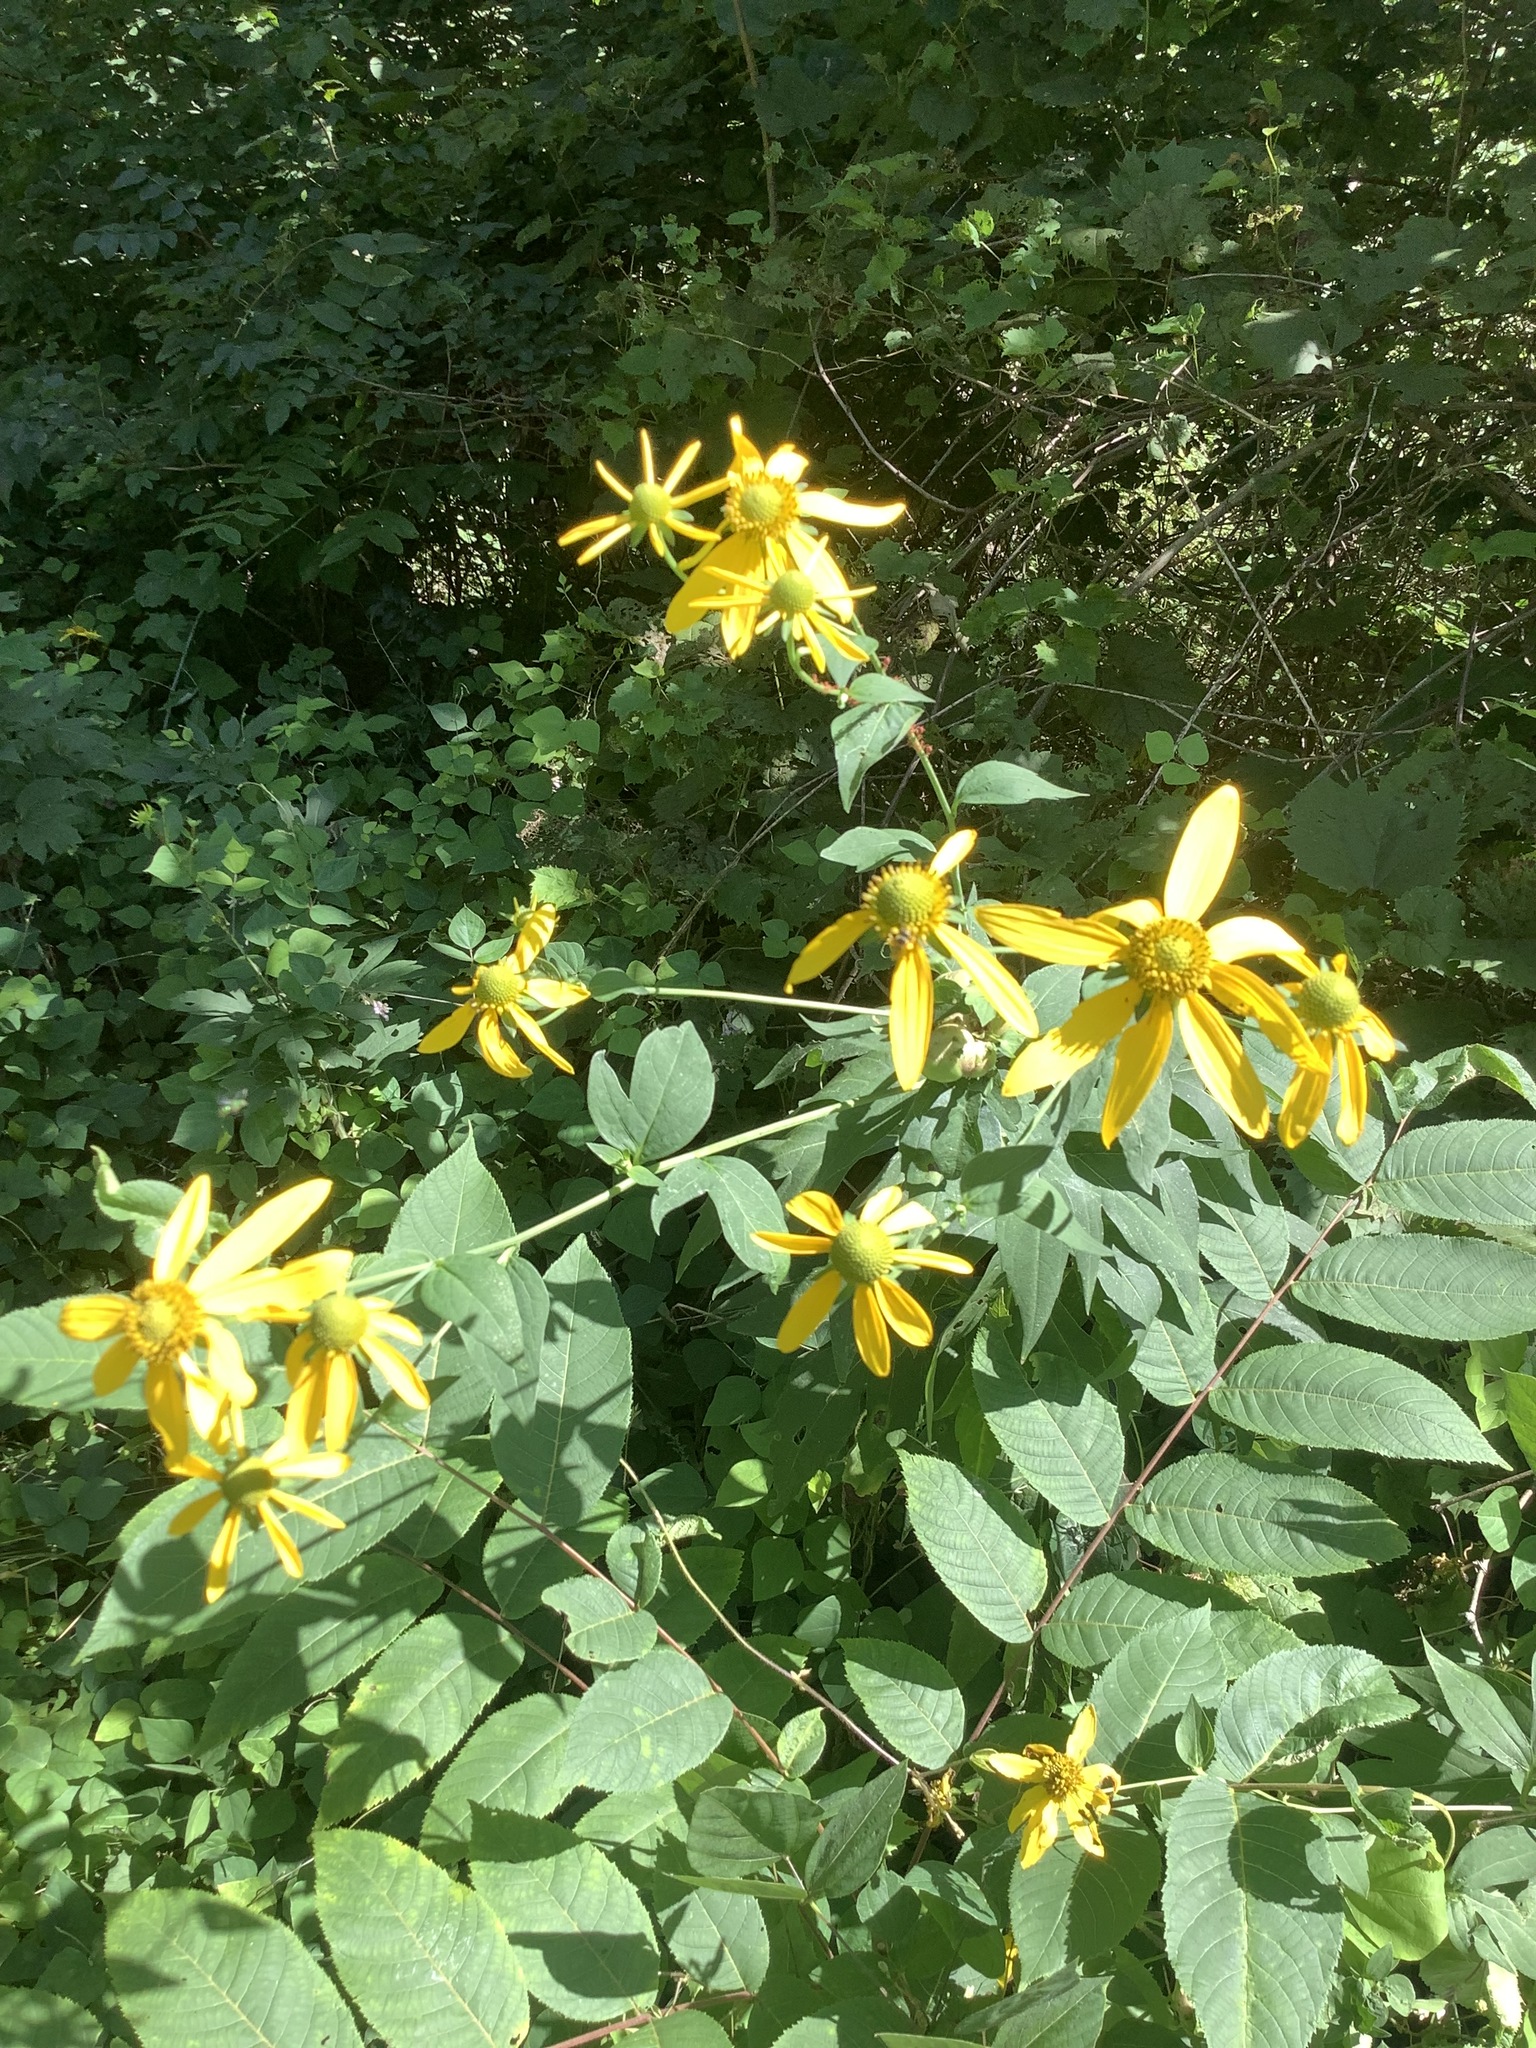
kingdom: Plantae
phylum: Tracheophyta
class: Magnoliopsida
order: Asterales
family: Asteraceae
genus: Rudbeckia
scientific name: Rudbeckia laciniata
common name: Coneflower
